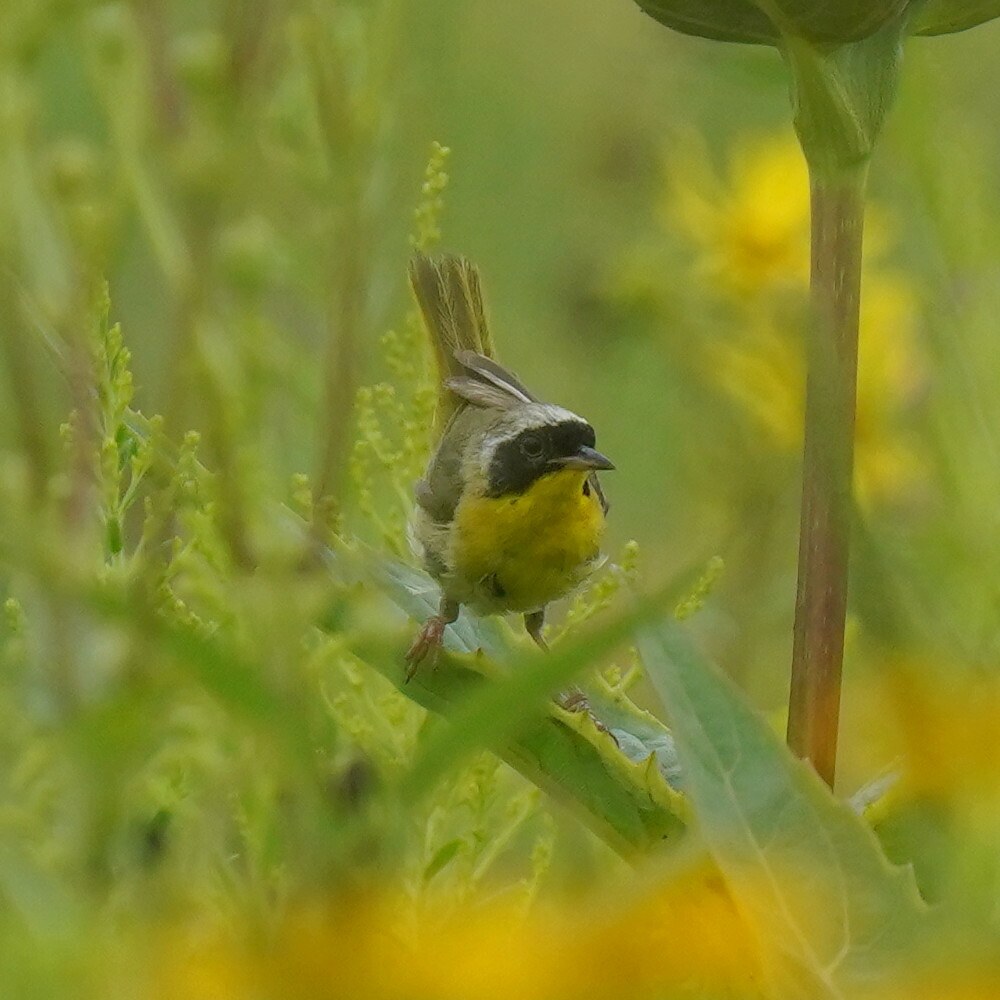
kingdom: Animalia
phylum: Chordata
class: Aves
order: Passeriformes
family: Parulidae
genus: Geothlypis
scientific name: Geothlypis trichas
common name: Common yellowthroat
